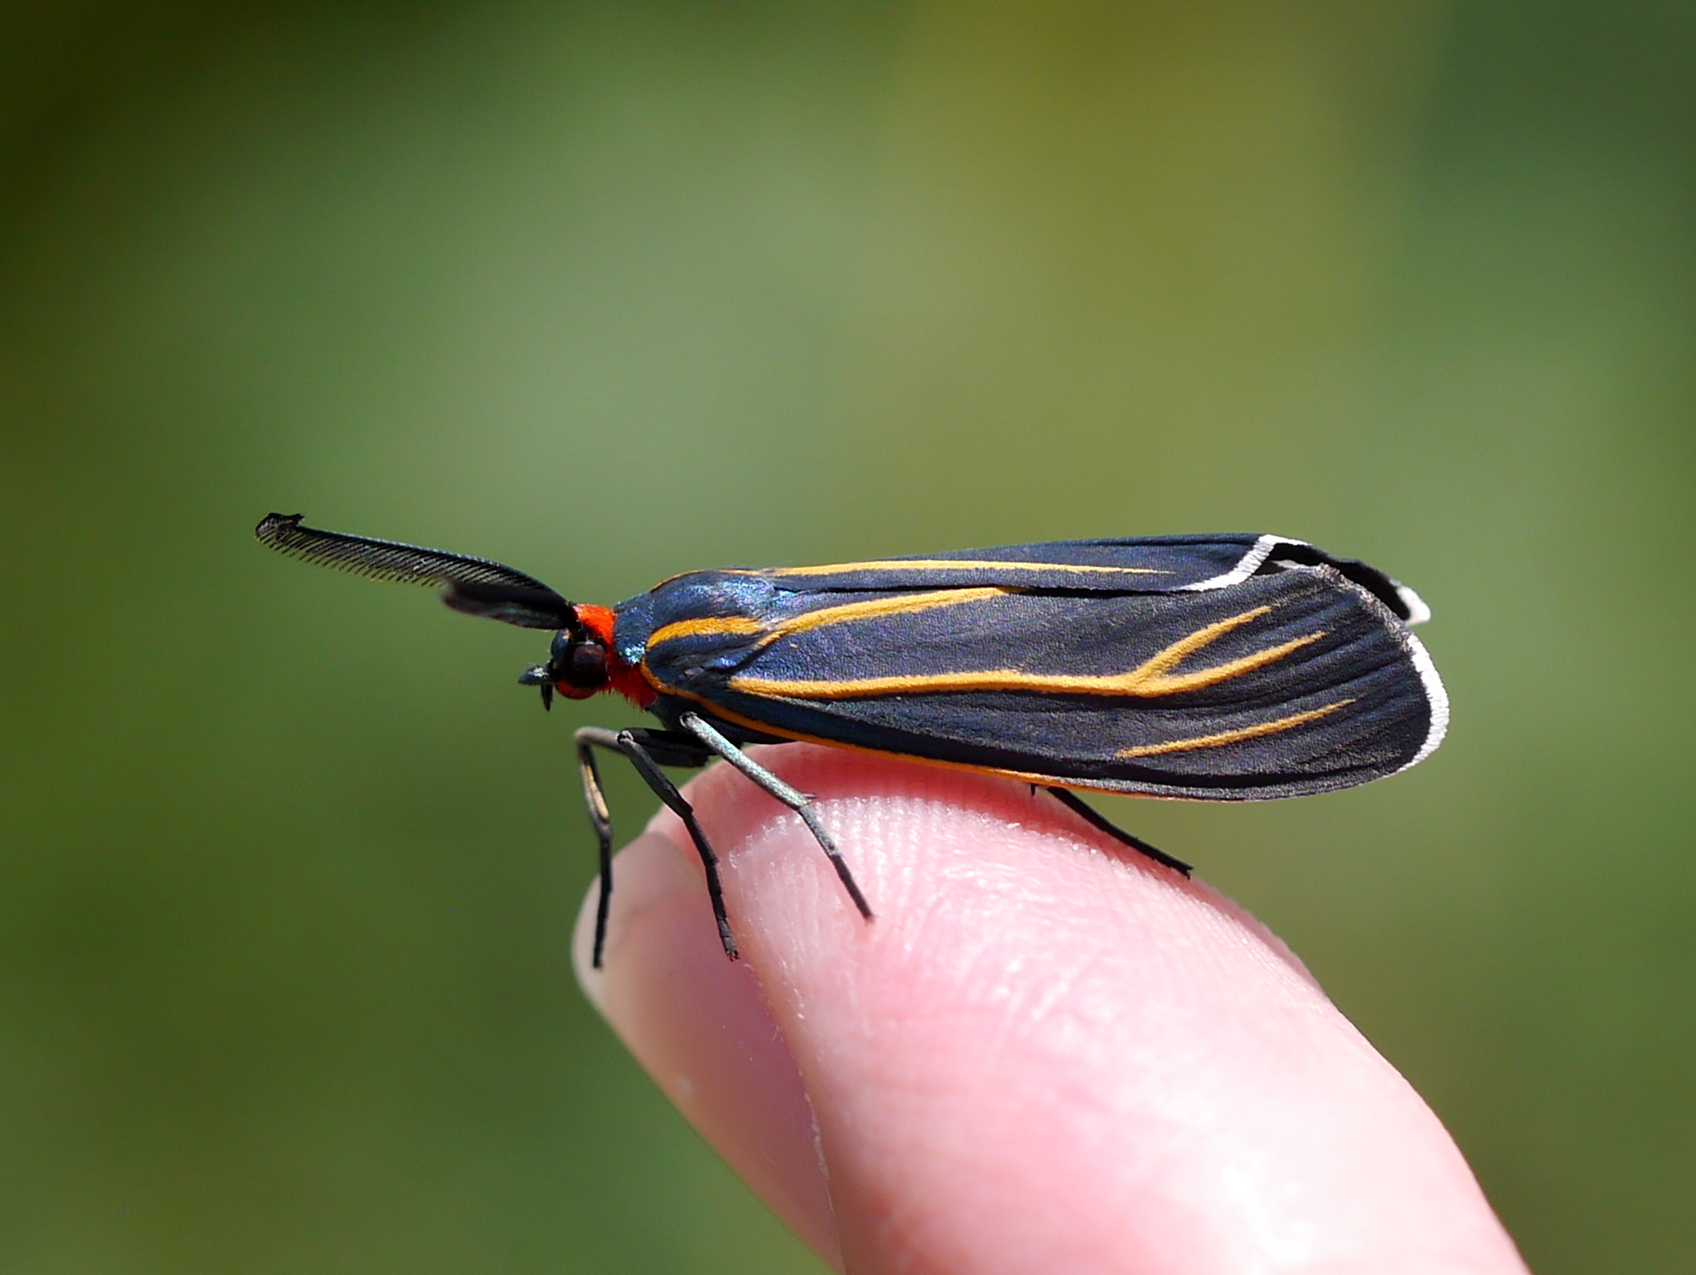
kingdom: Animalia
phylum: Arthropoda
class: Insecta
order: Lepidoptera
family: Erebidae
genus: Ctenucha
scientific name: Ctenucha venosa
